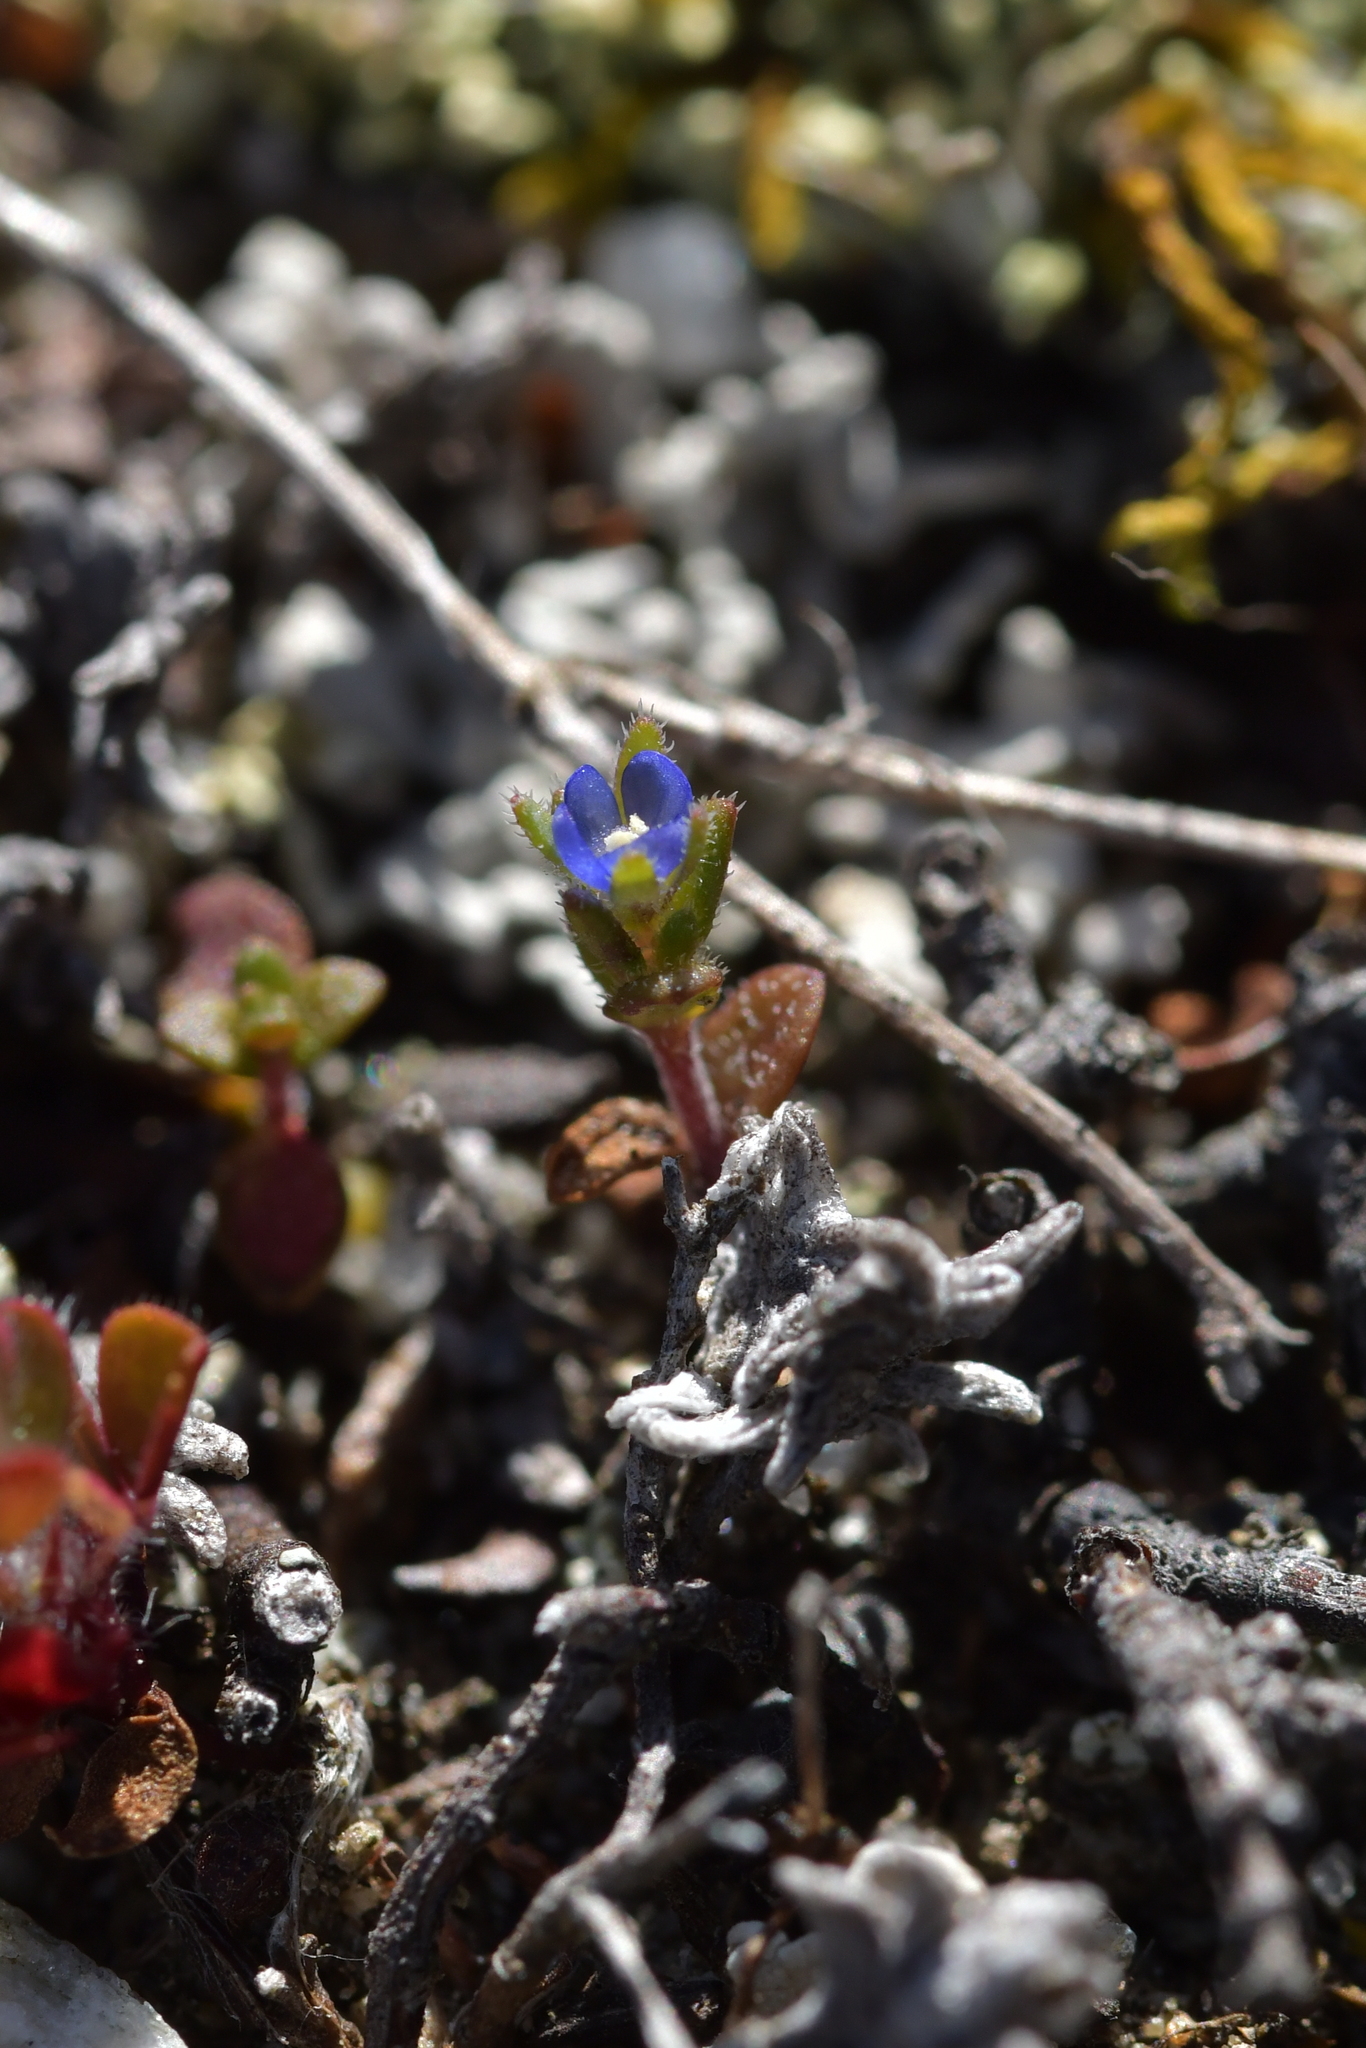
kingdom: Plantae
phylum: Tracheophyta
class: Magnoliopsida
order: Lamiales
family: Plantaginaceae
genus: Veronica
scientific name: Veronica verna
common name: Spring speedwell
